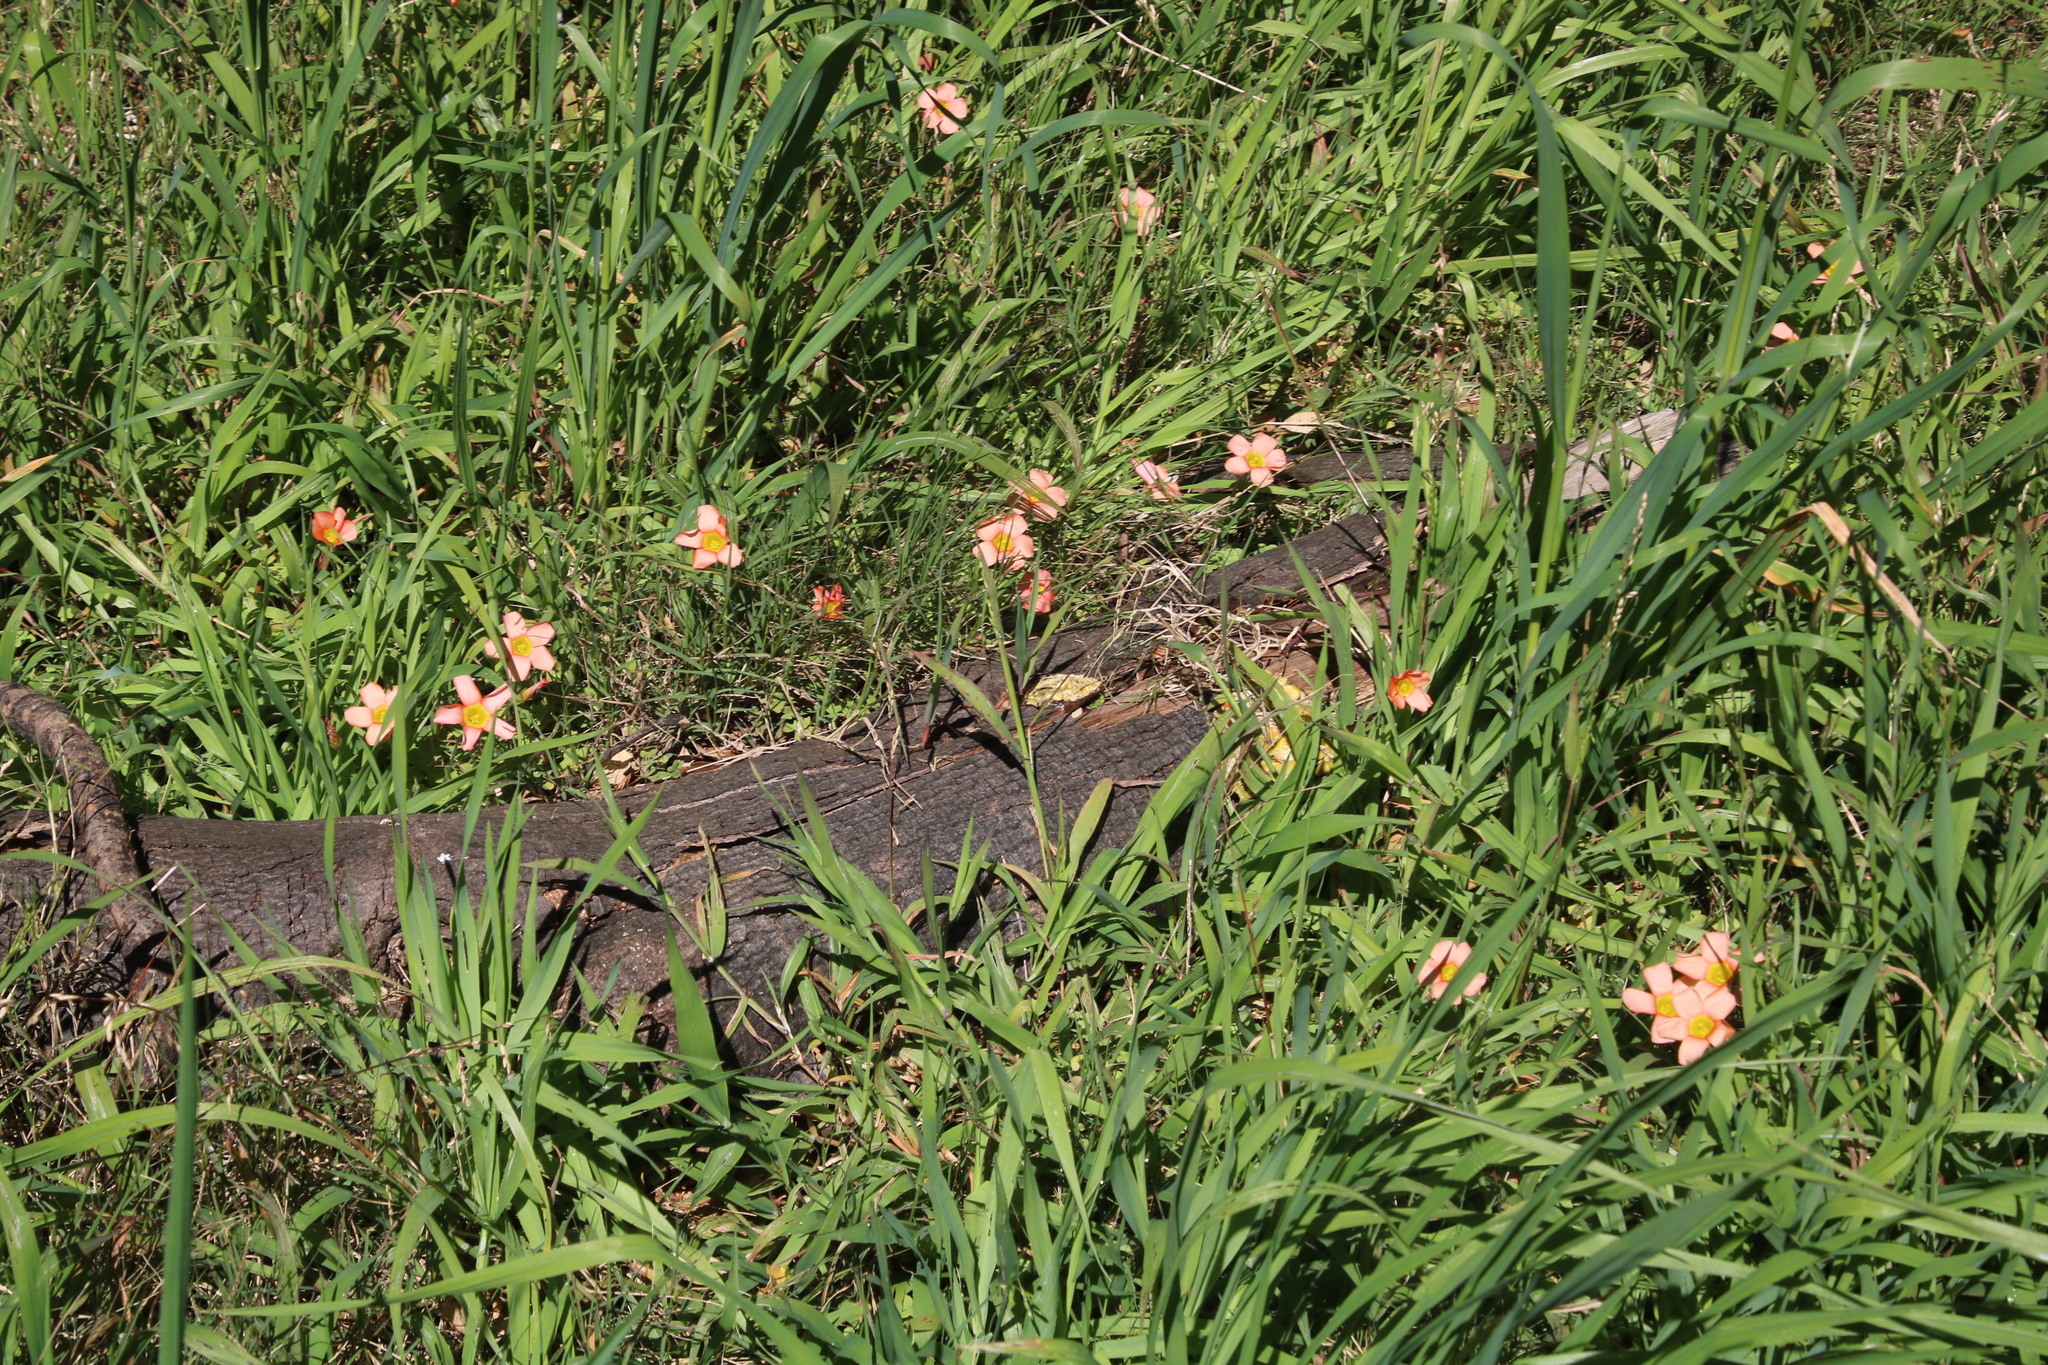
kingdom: Plantae
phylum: Tracheophyta
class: Magnoliopsida
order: Oxalidales
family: Oxalidaceae
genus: Oxalis
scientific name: Oxalis obtusa
